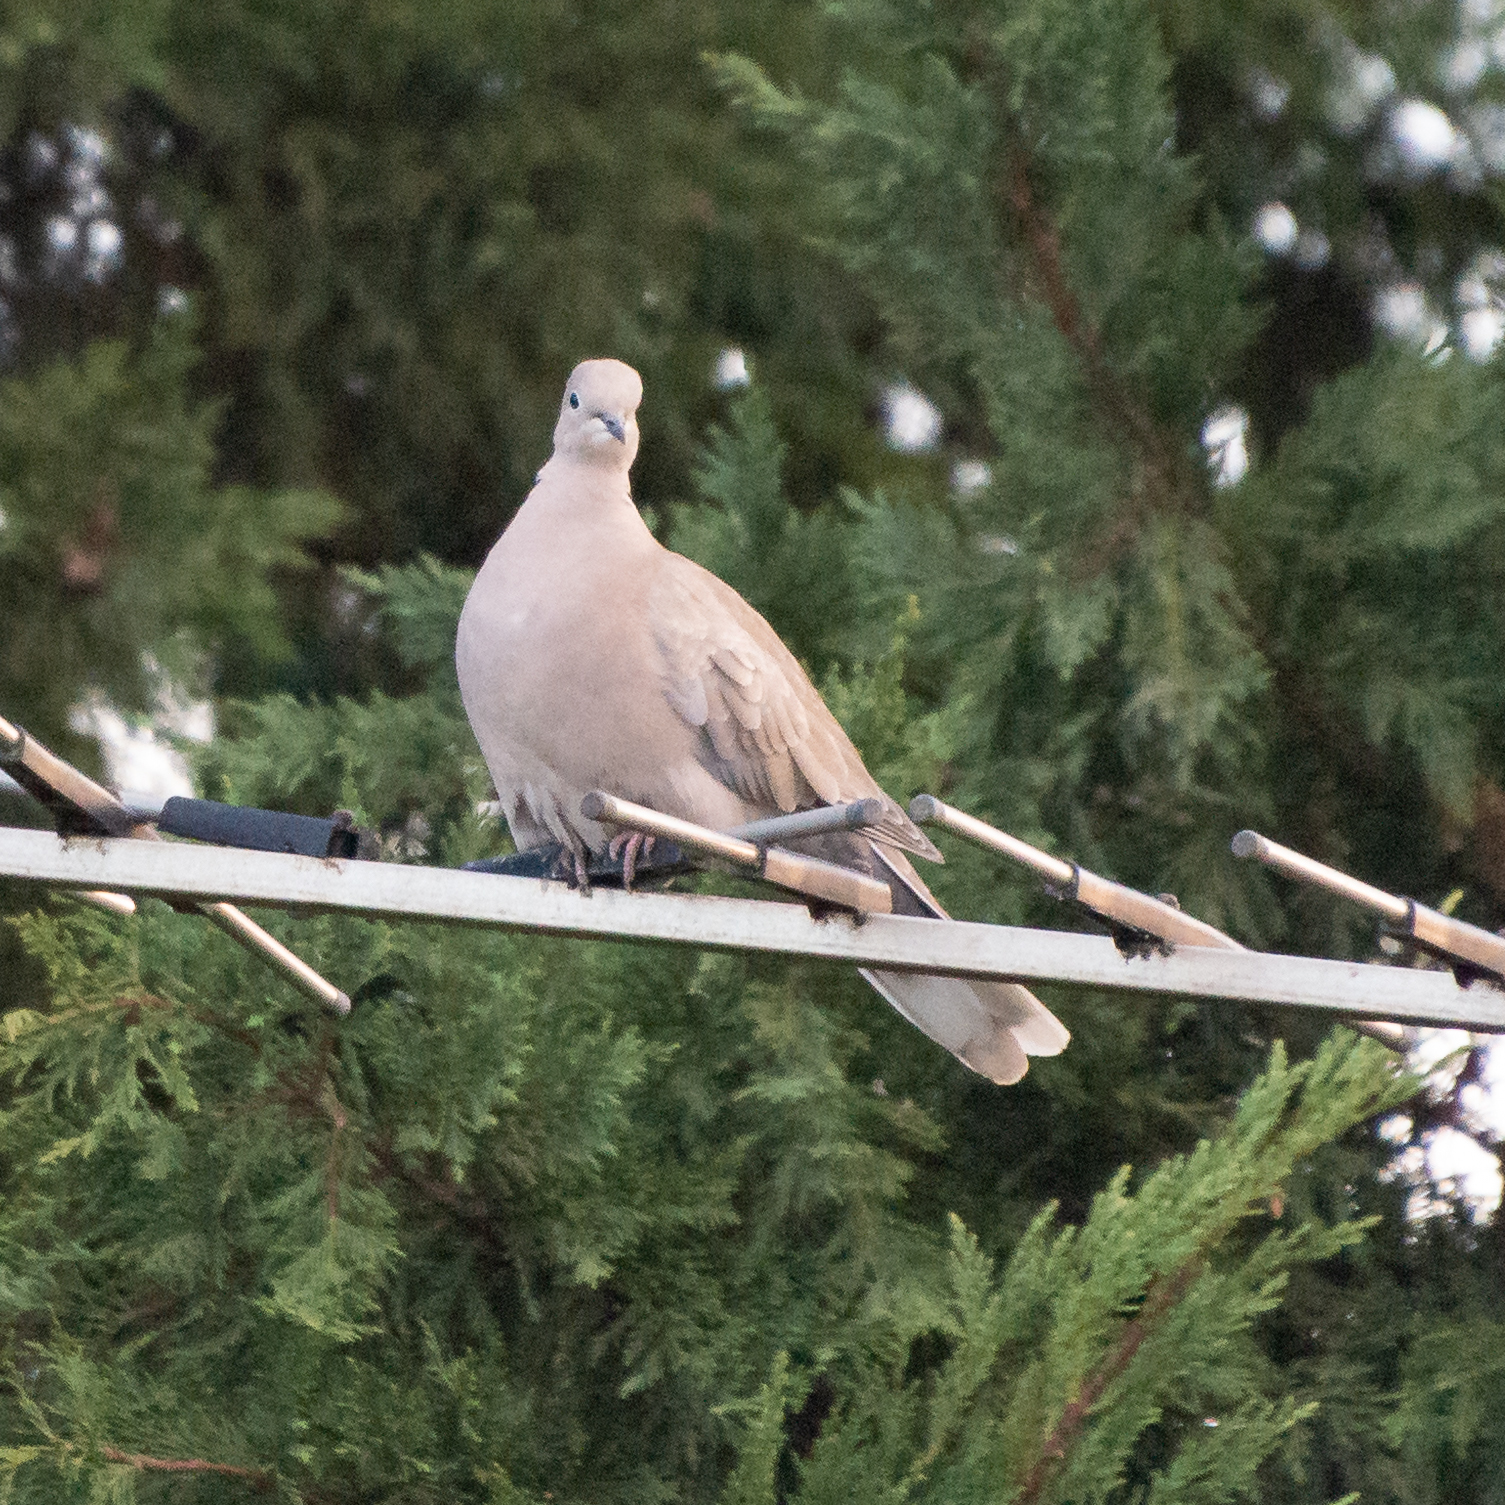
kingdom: Animalia
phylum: Chordata
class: Aves
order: Columbiformes
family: Columbidae
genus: Streptopelia
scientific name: Streptopelia decaocto
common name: Eurasian collared dove
